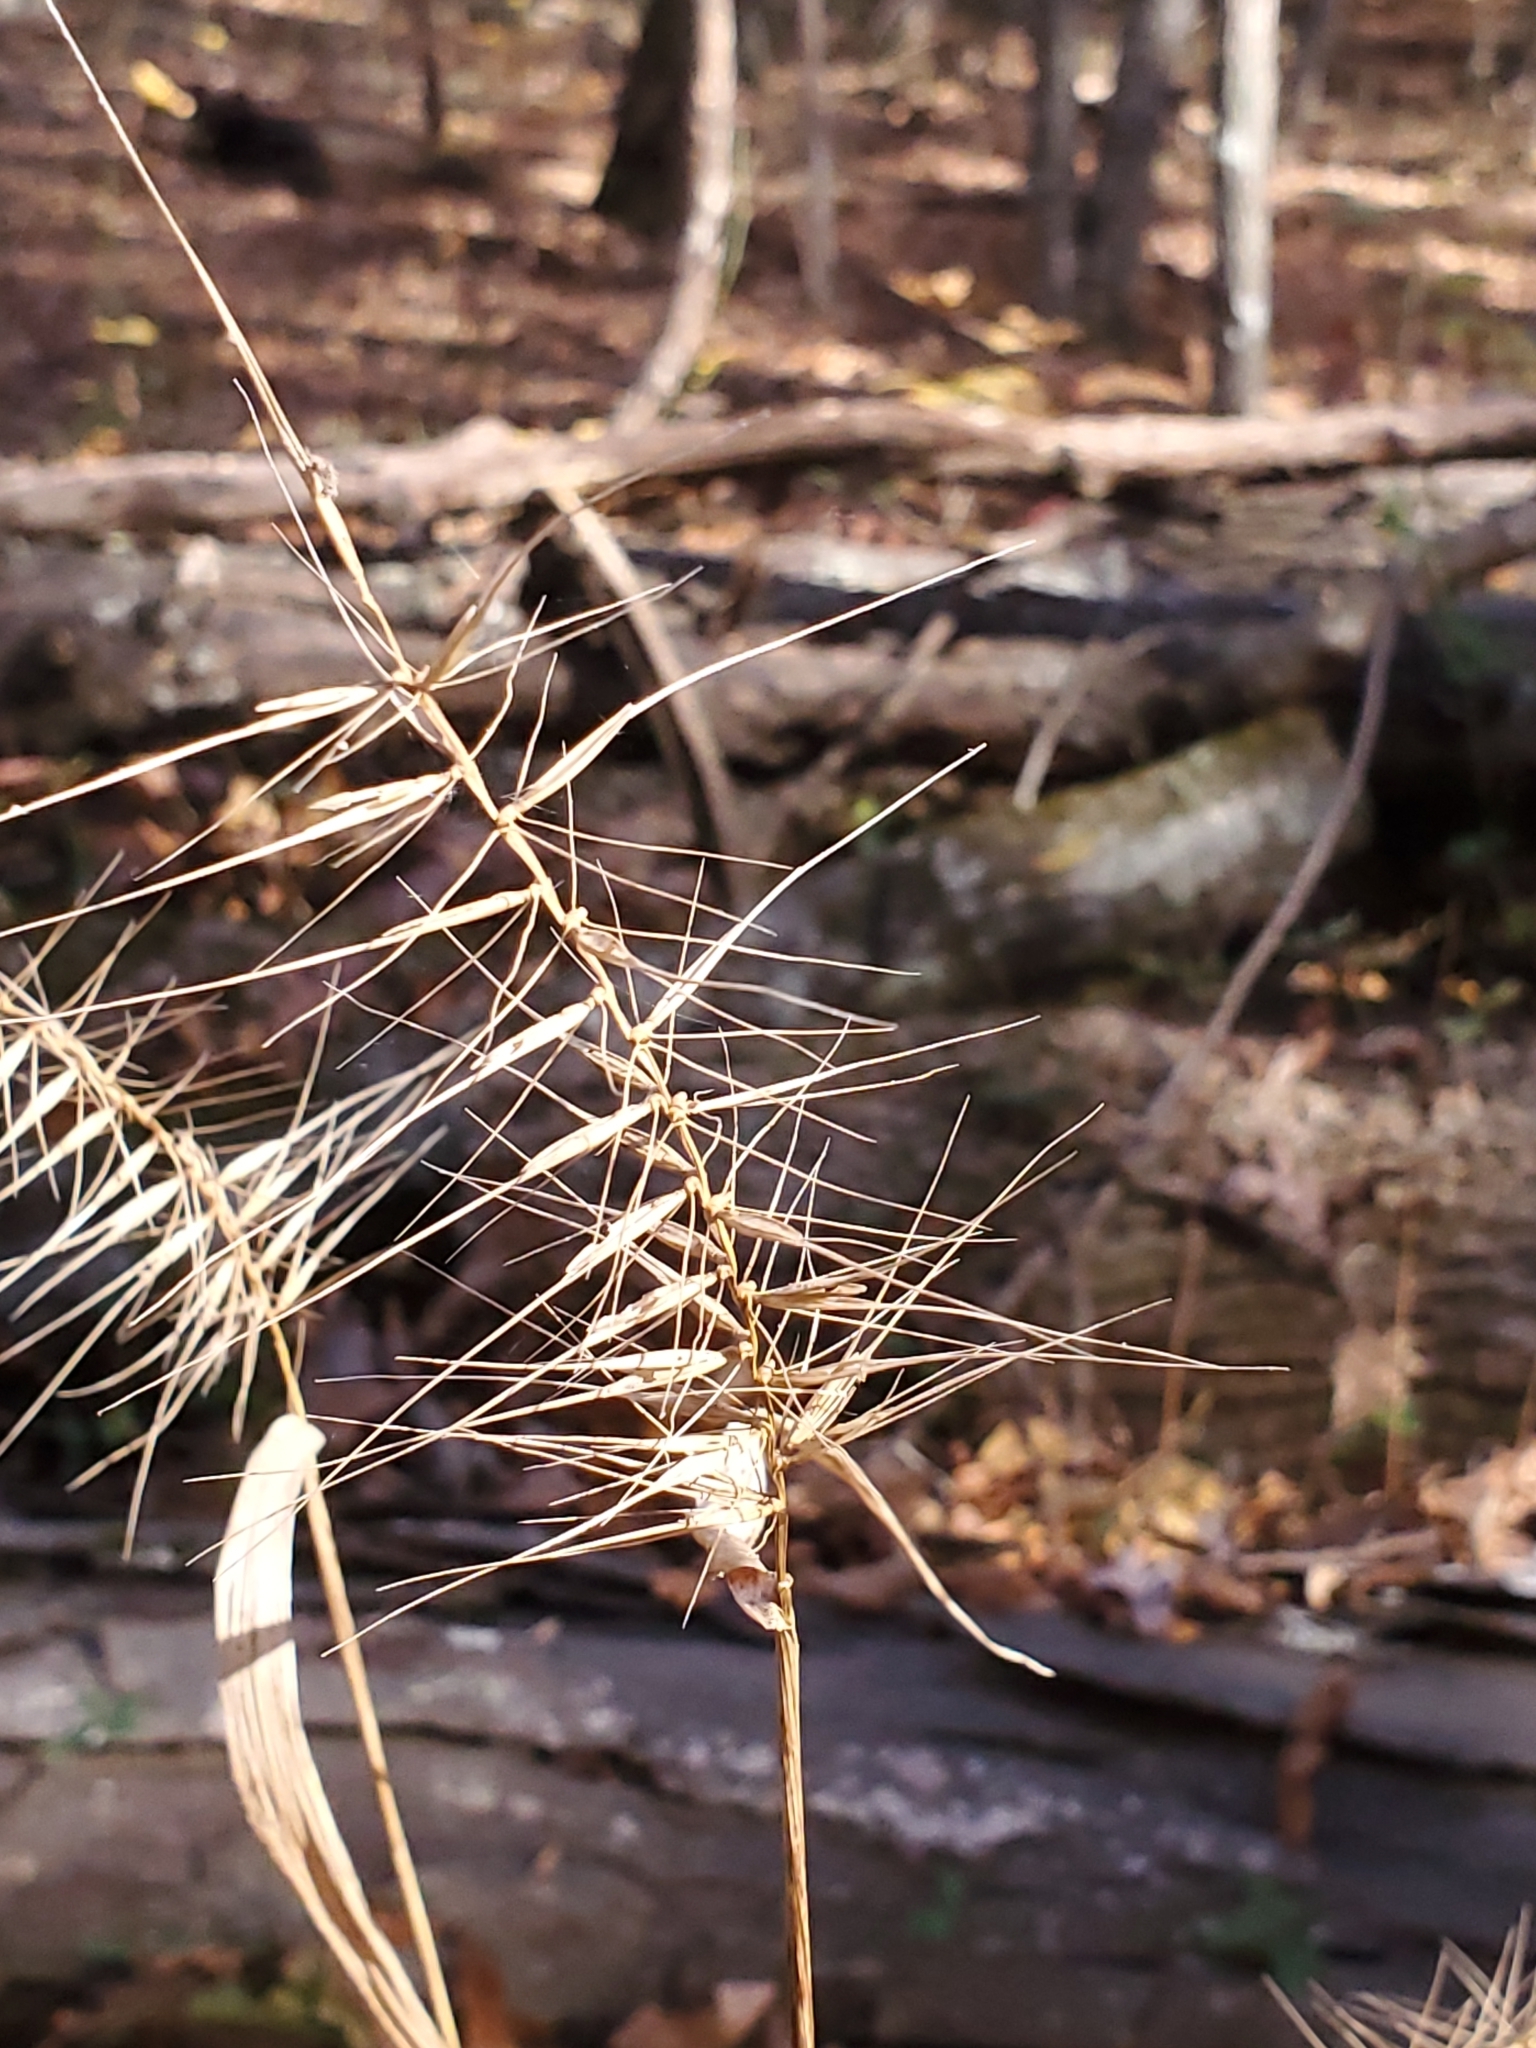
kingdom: Plantae
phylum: Tracheophyta
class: Liliopsida
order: Poales
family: Poaceae
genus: Elymus
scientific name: Elymus hystrix
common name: Bottlebrush grass
